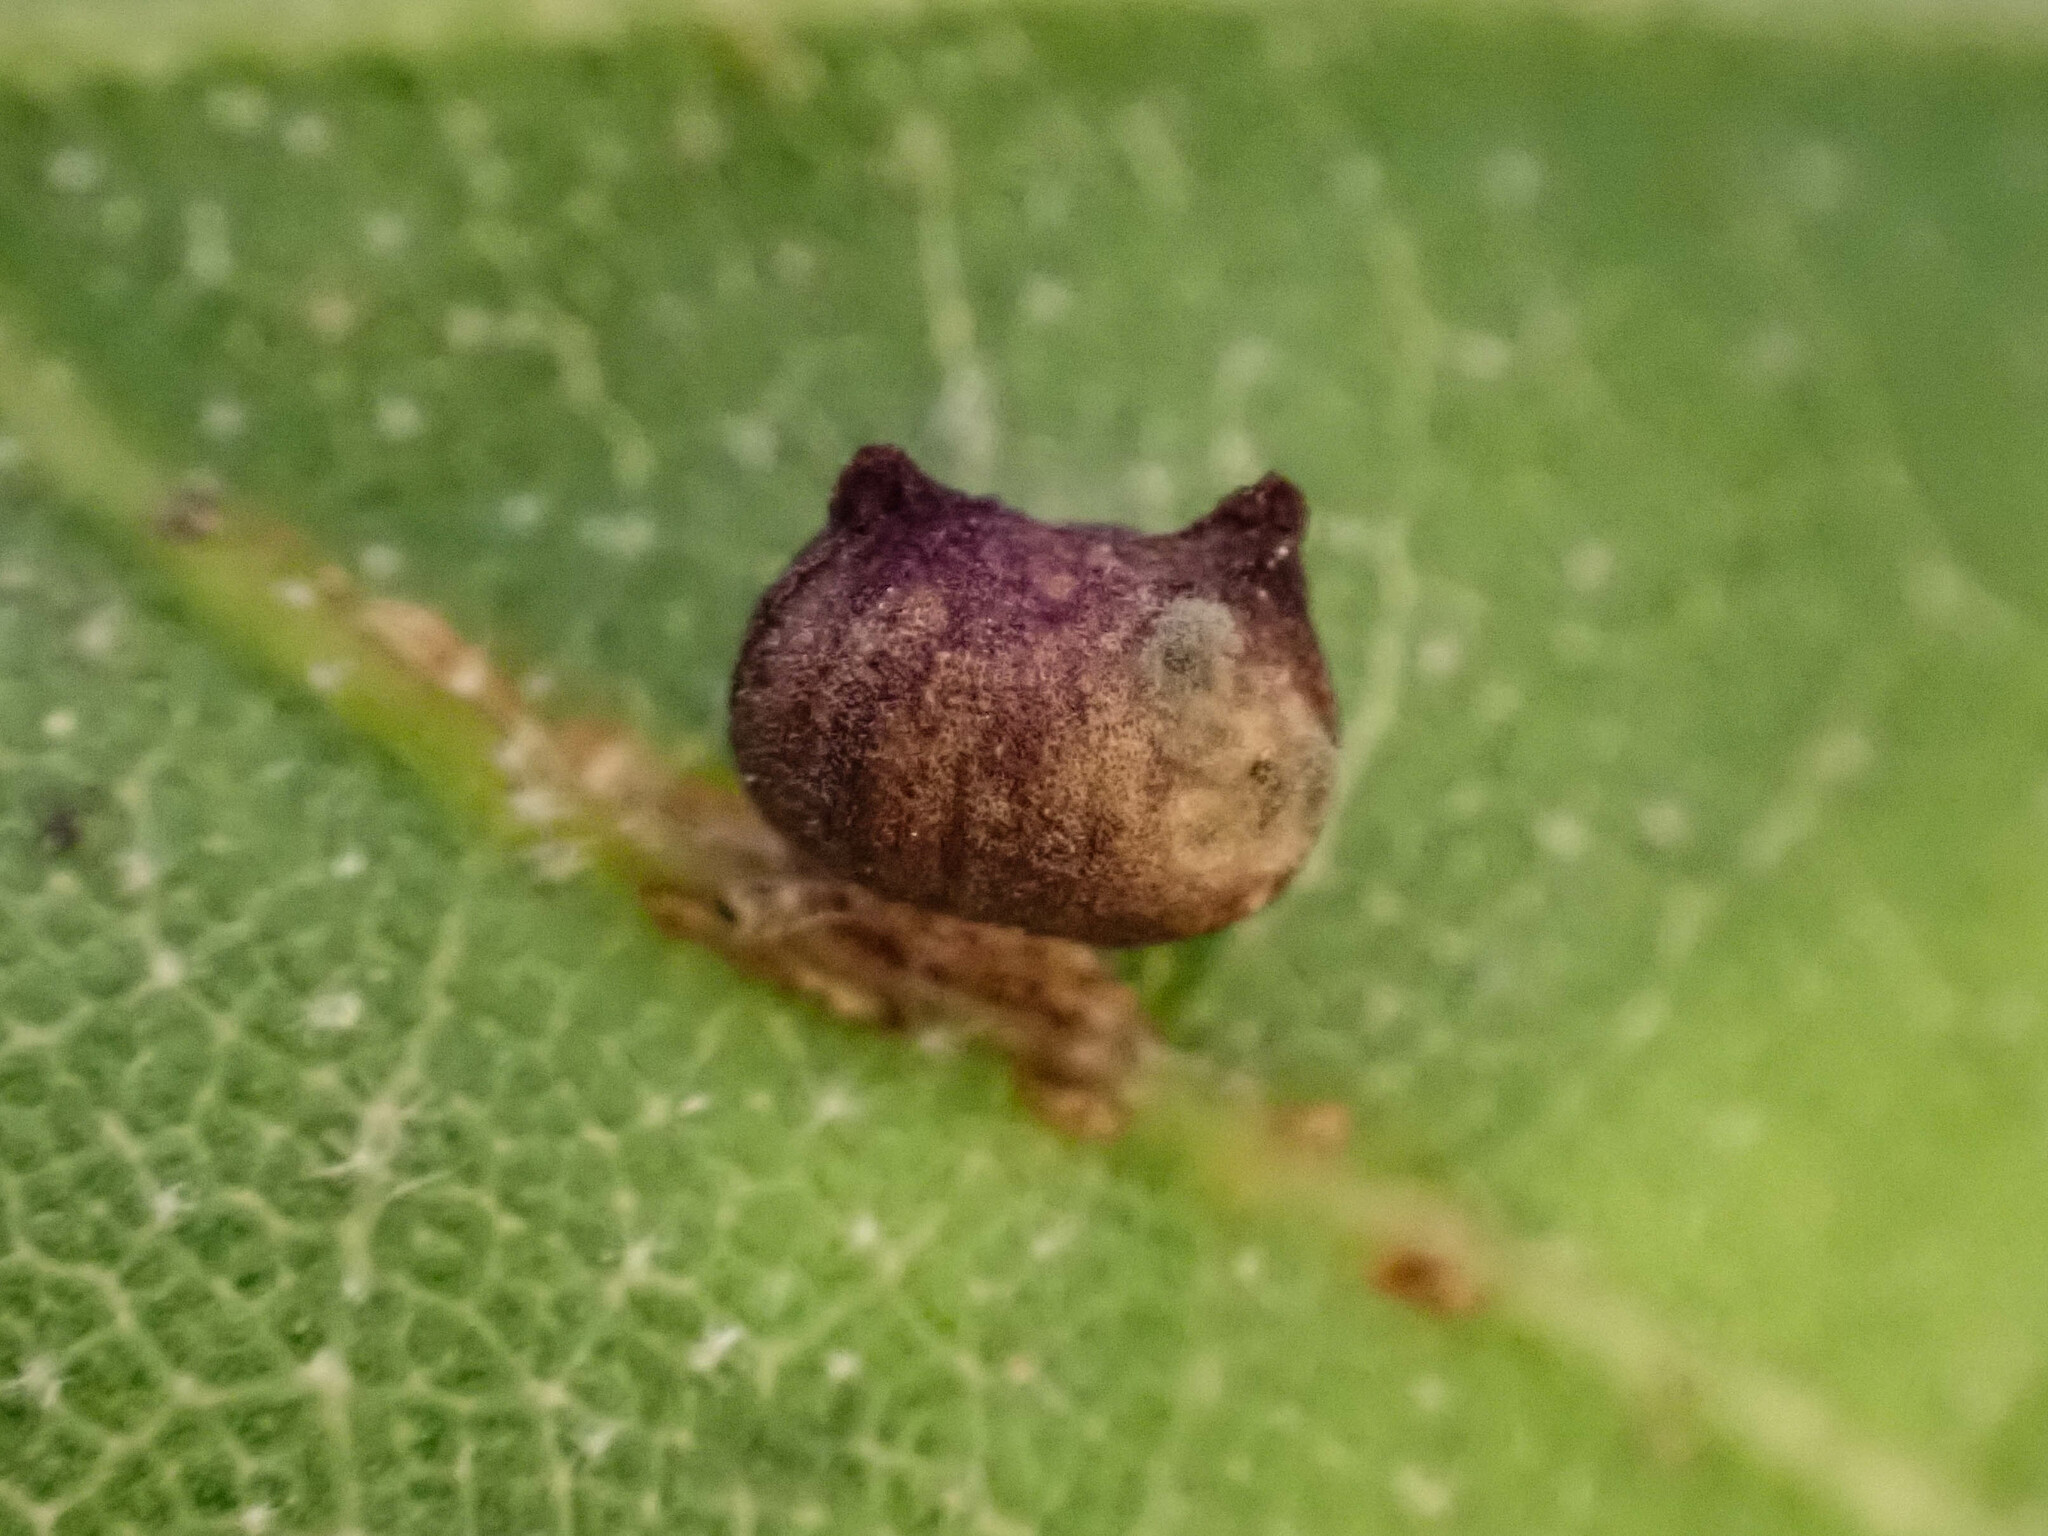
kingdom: Animalia
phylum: Arthropoda
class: Insecta
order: Hymenoptera
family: Cynipidae
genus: Dryocosmus
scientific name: Dryocosmus
